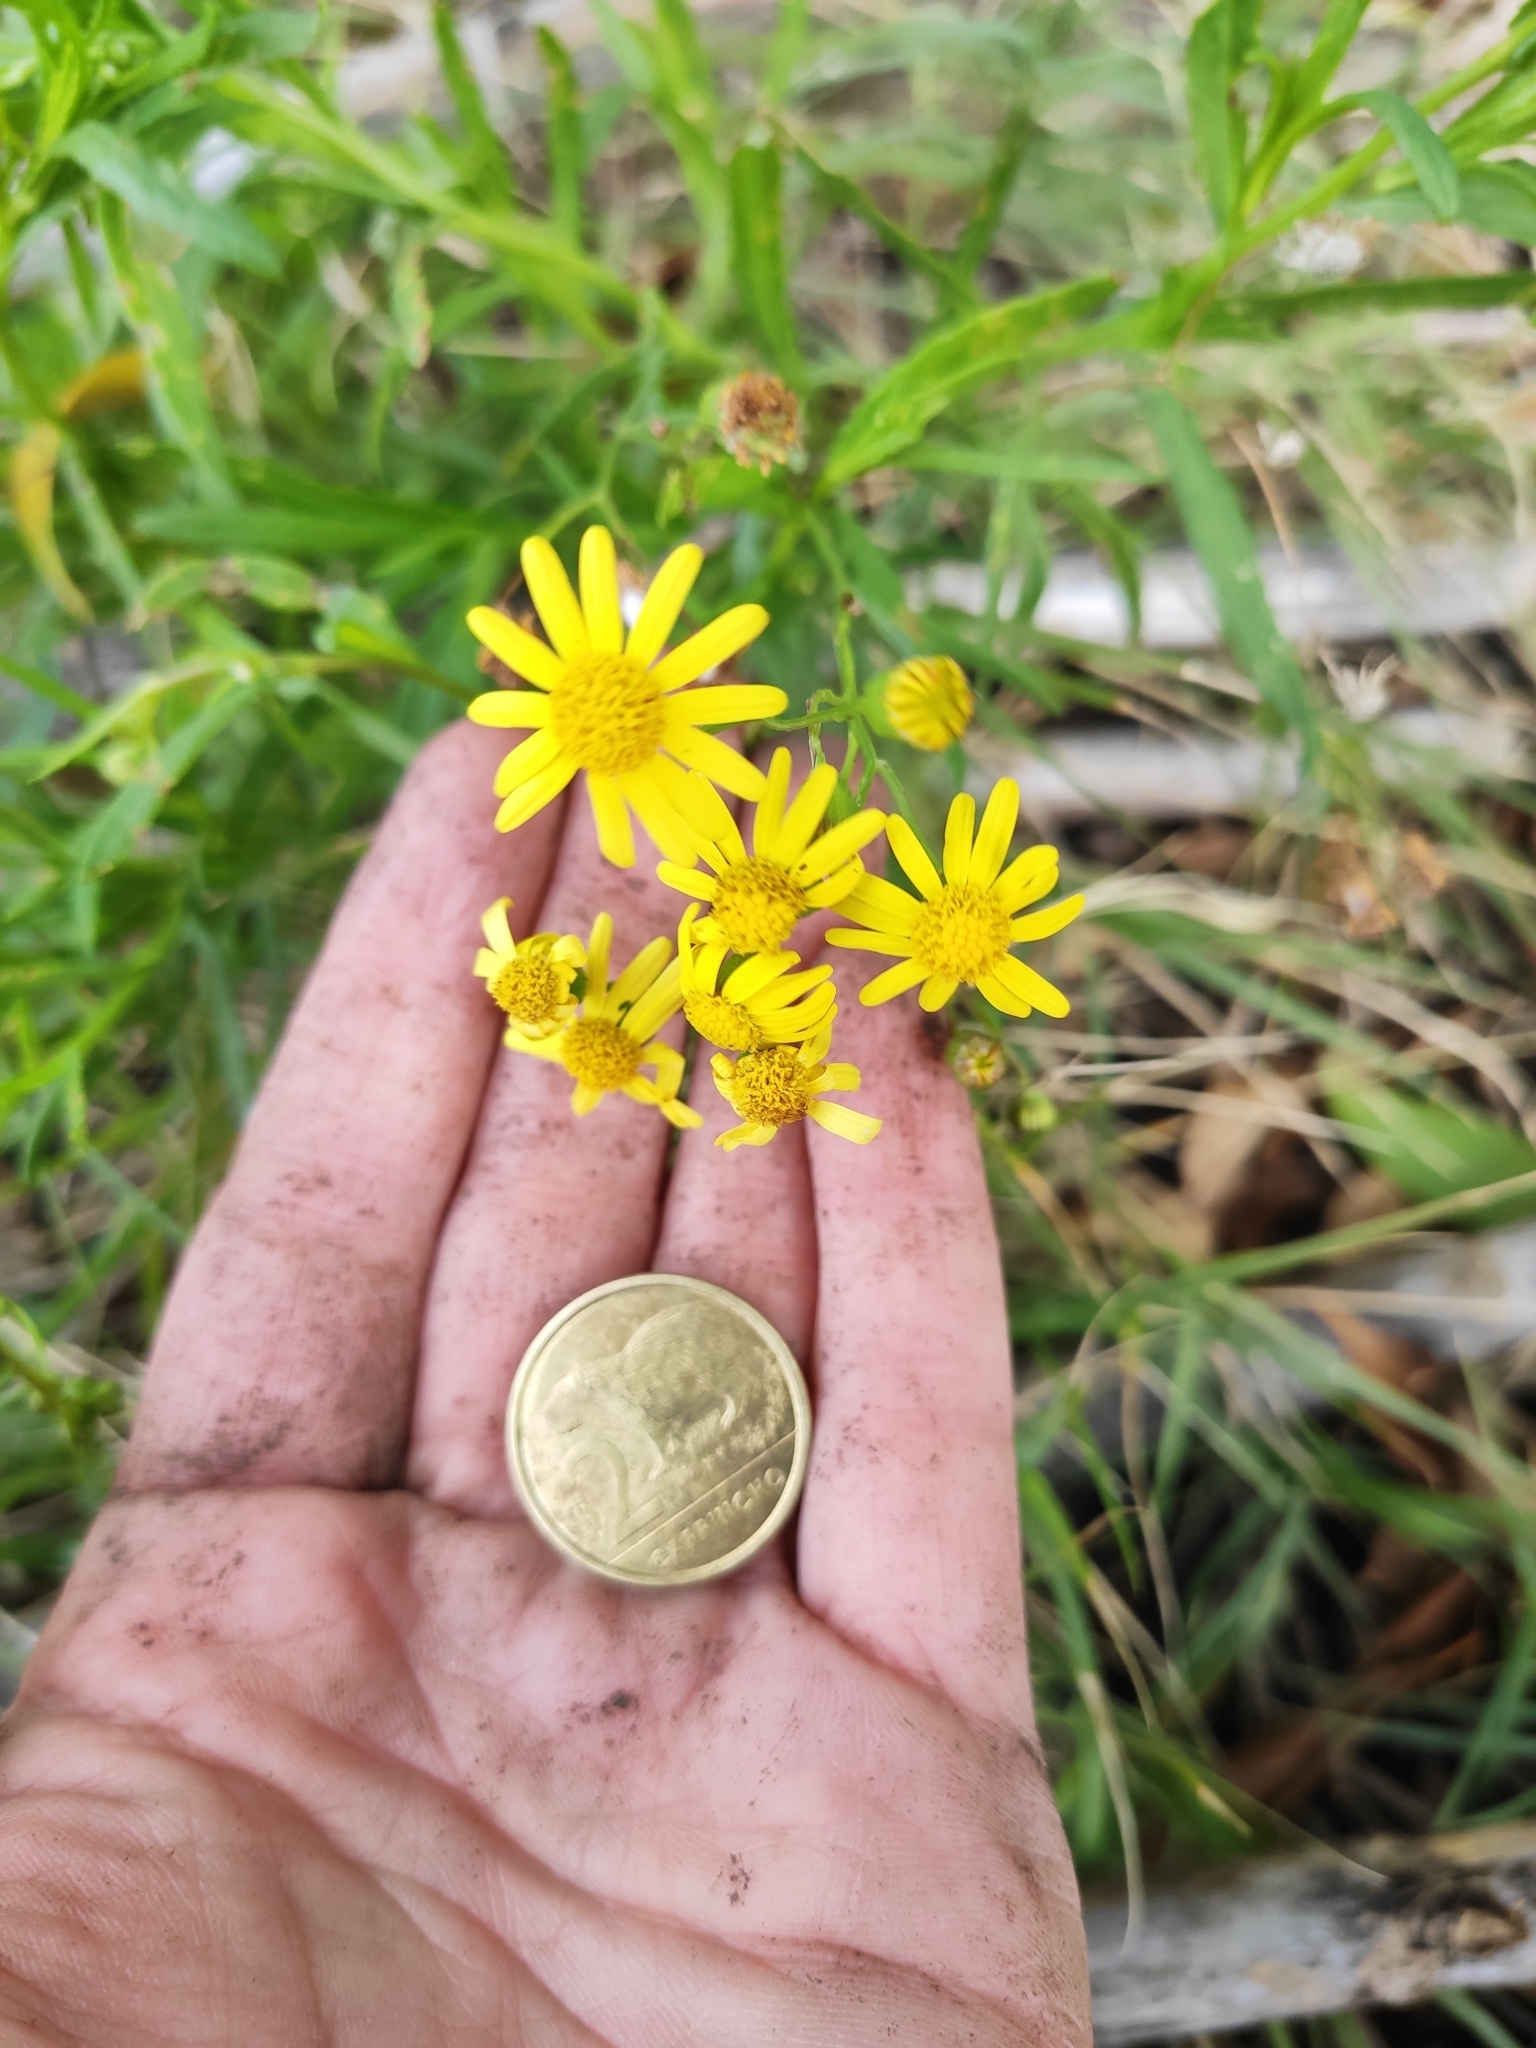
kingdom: Plantae
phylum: Tracheophyta
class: Magnoliopsida
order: Asterales
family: Asteraceae
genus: Senecio
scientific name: Senecio madagascariensis
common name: Madagascar ragwort
